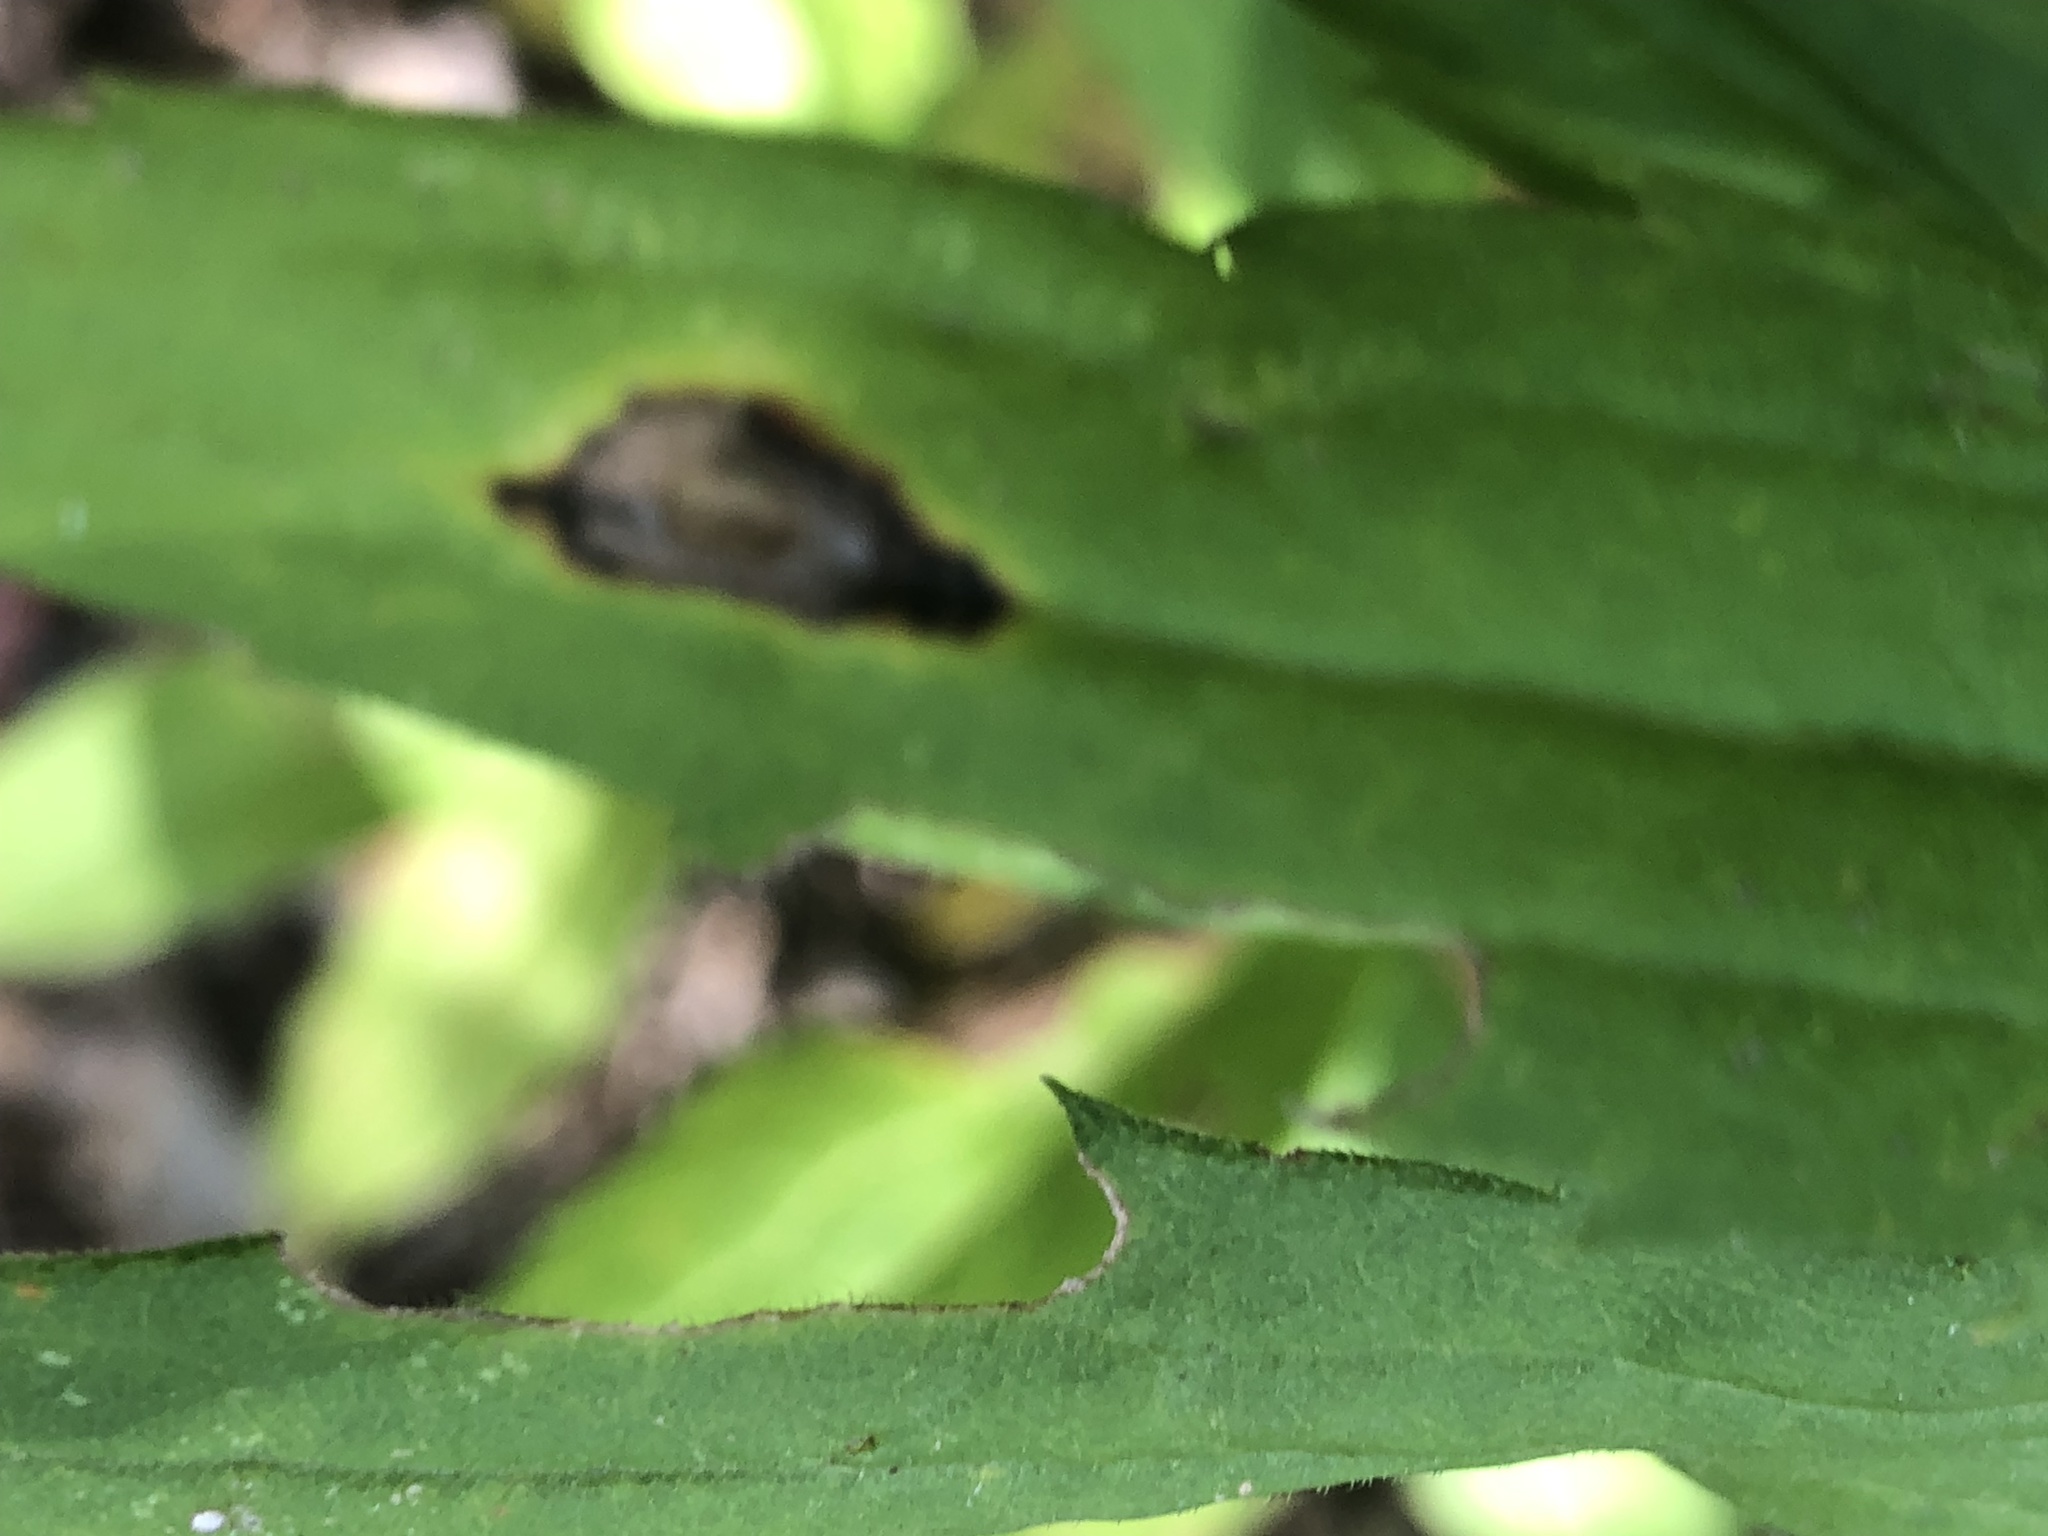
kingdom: Animalia
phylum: Arthropoda
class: Insecta
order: Diptera
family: Cecidomyiidae
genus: Asteromyia
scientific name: Asteromyia carbonifera
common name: Carbonifera goldenrod gall midge
